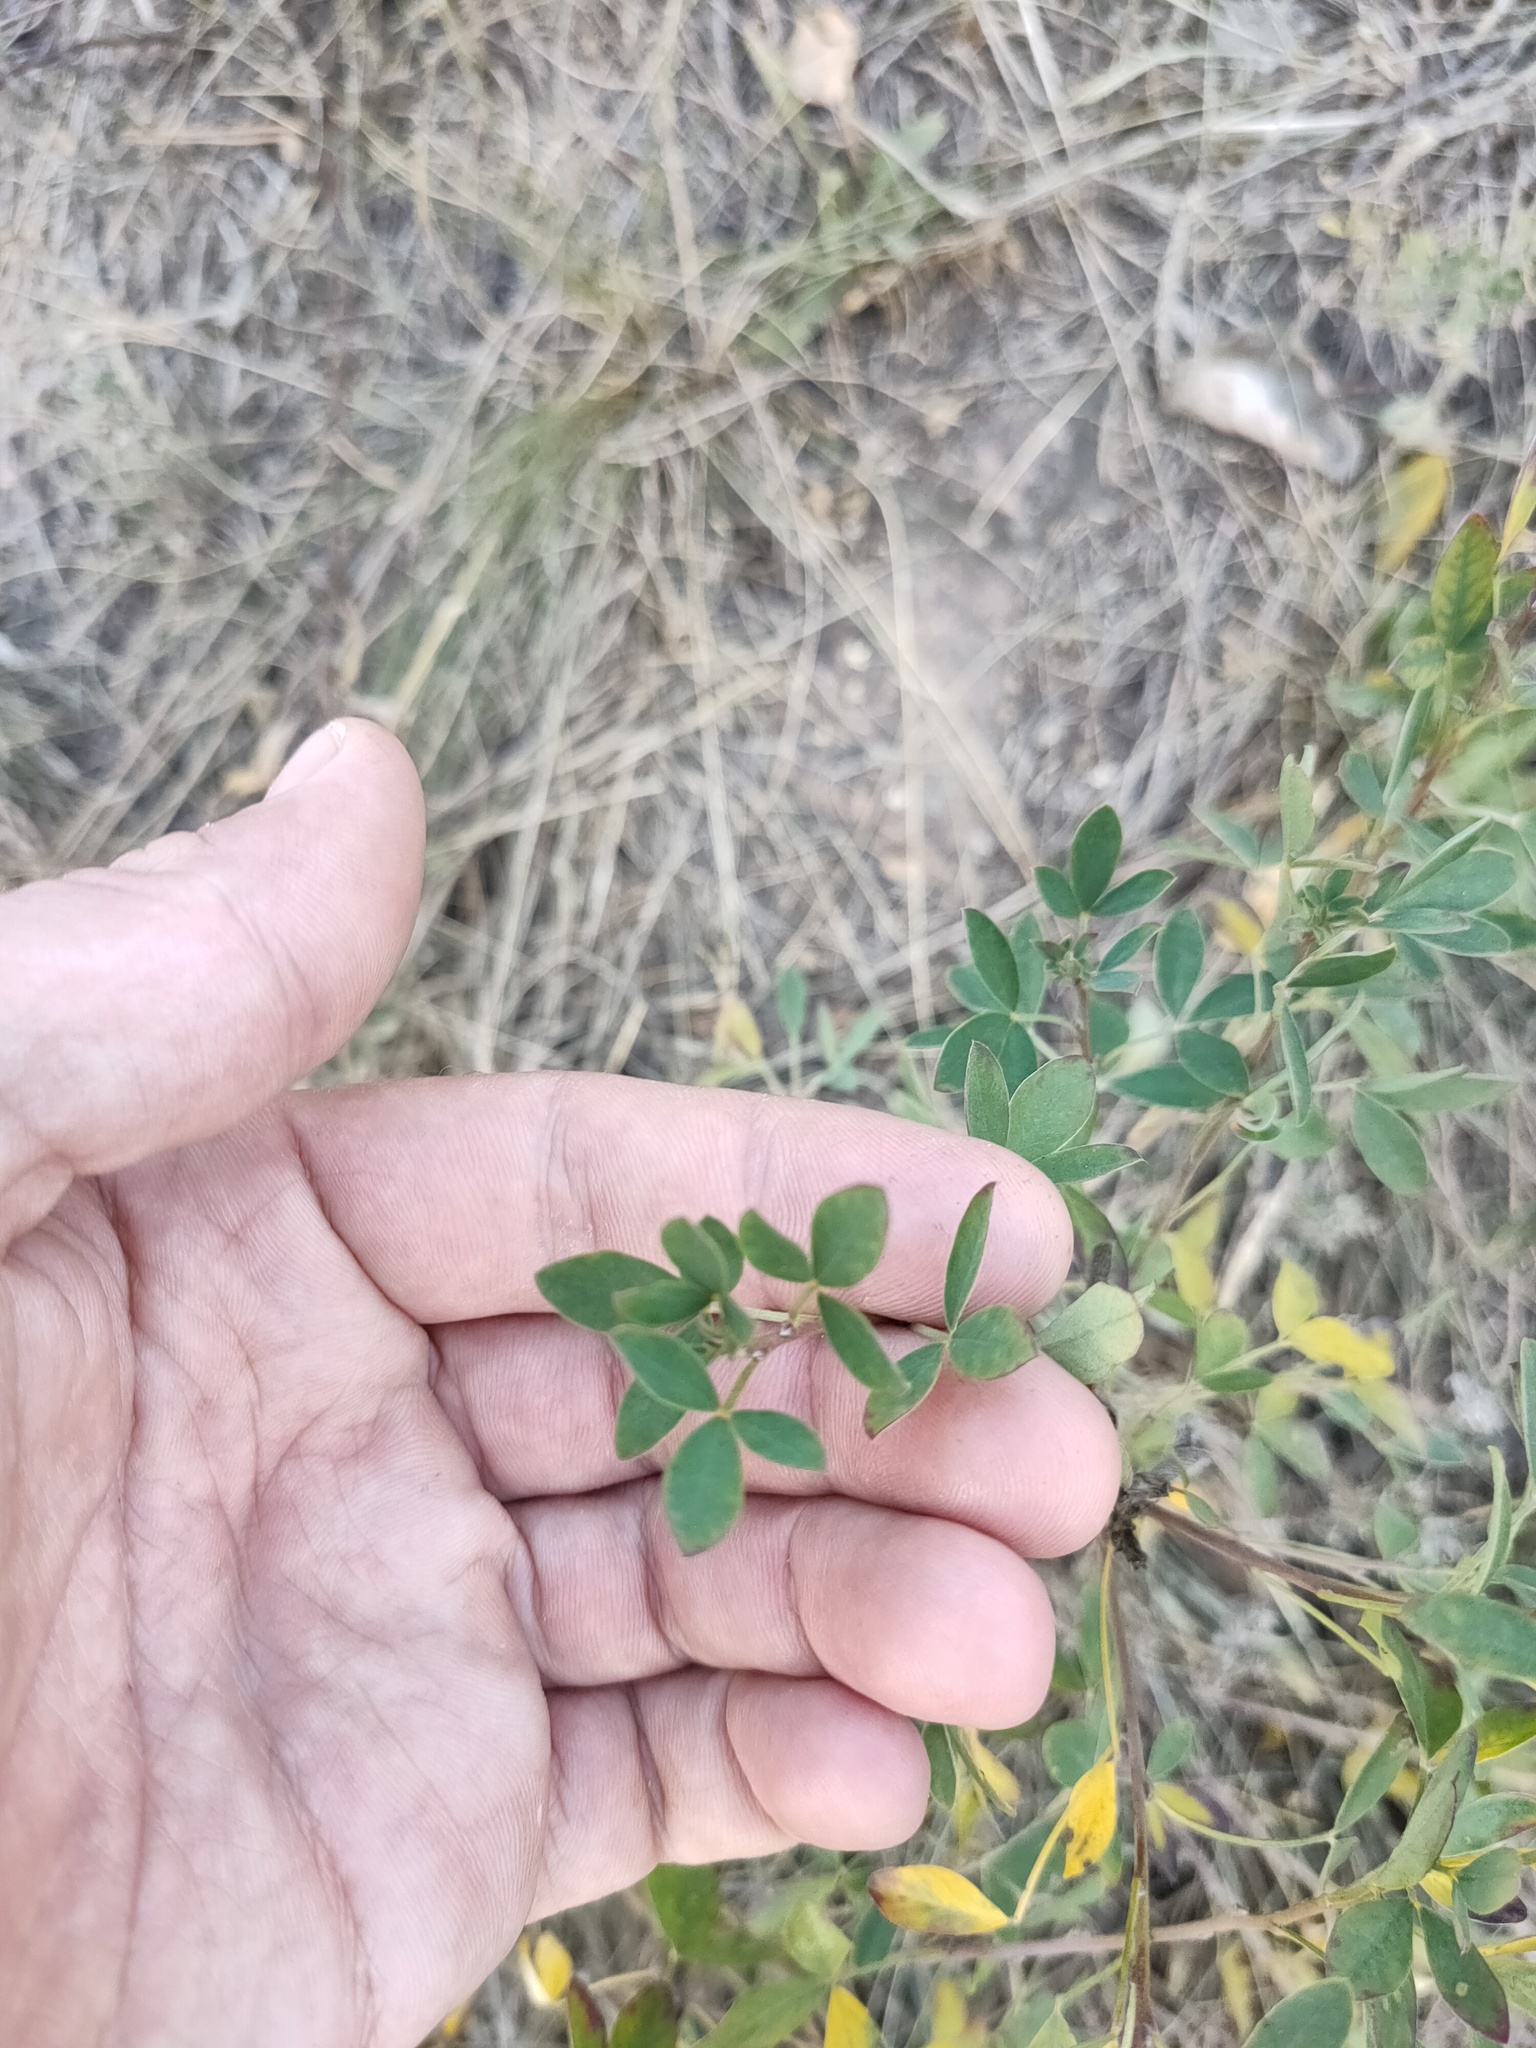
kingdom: Plantae
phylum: Tracheophyta
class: Magnoliopsida
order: Fabales
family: Fabaceae
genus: Chamaecytisus
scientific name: Chamaecytisus ruthenicus
